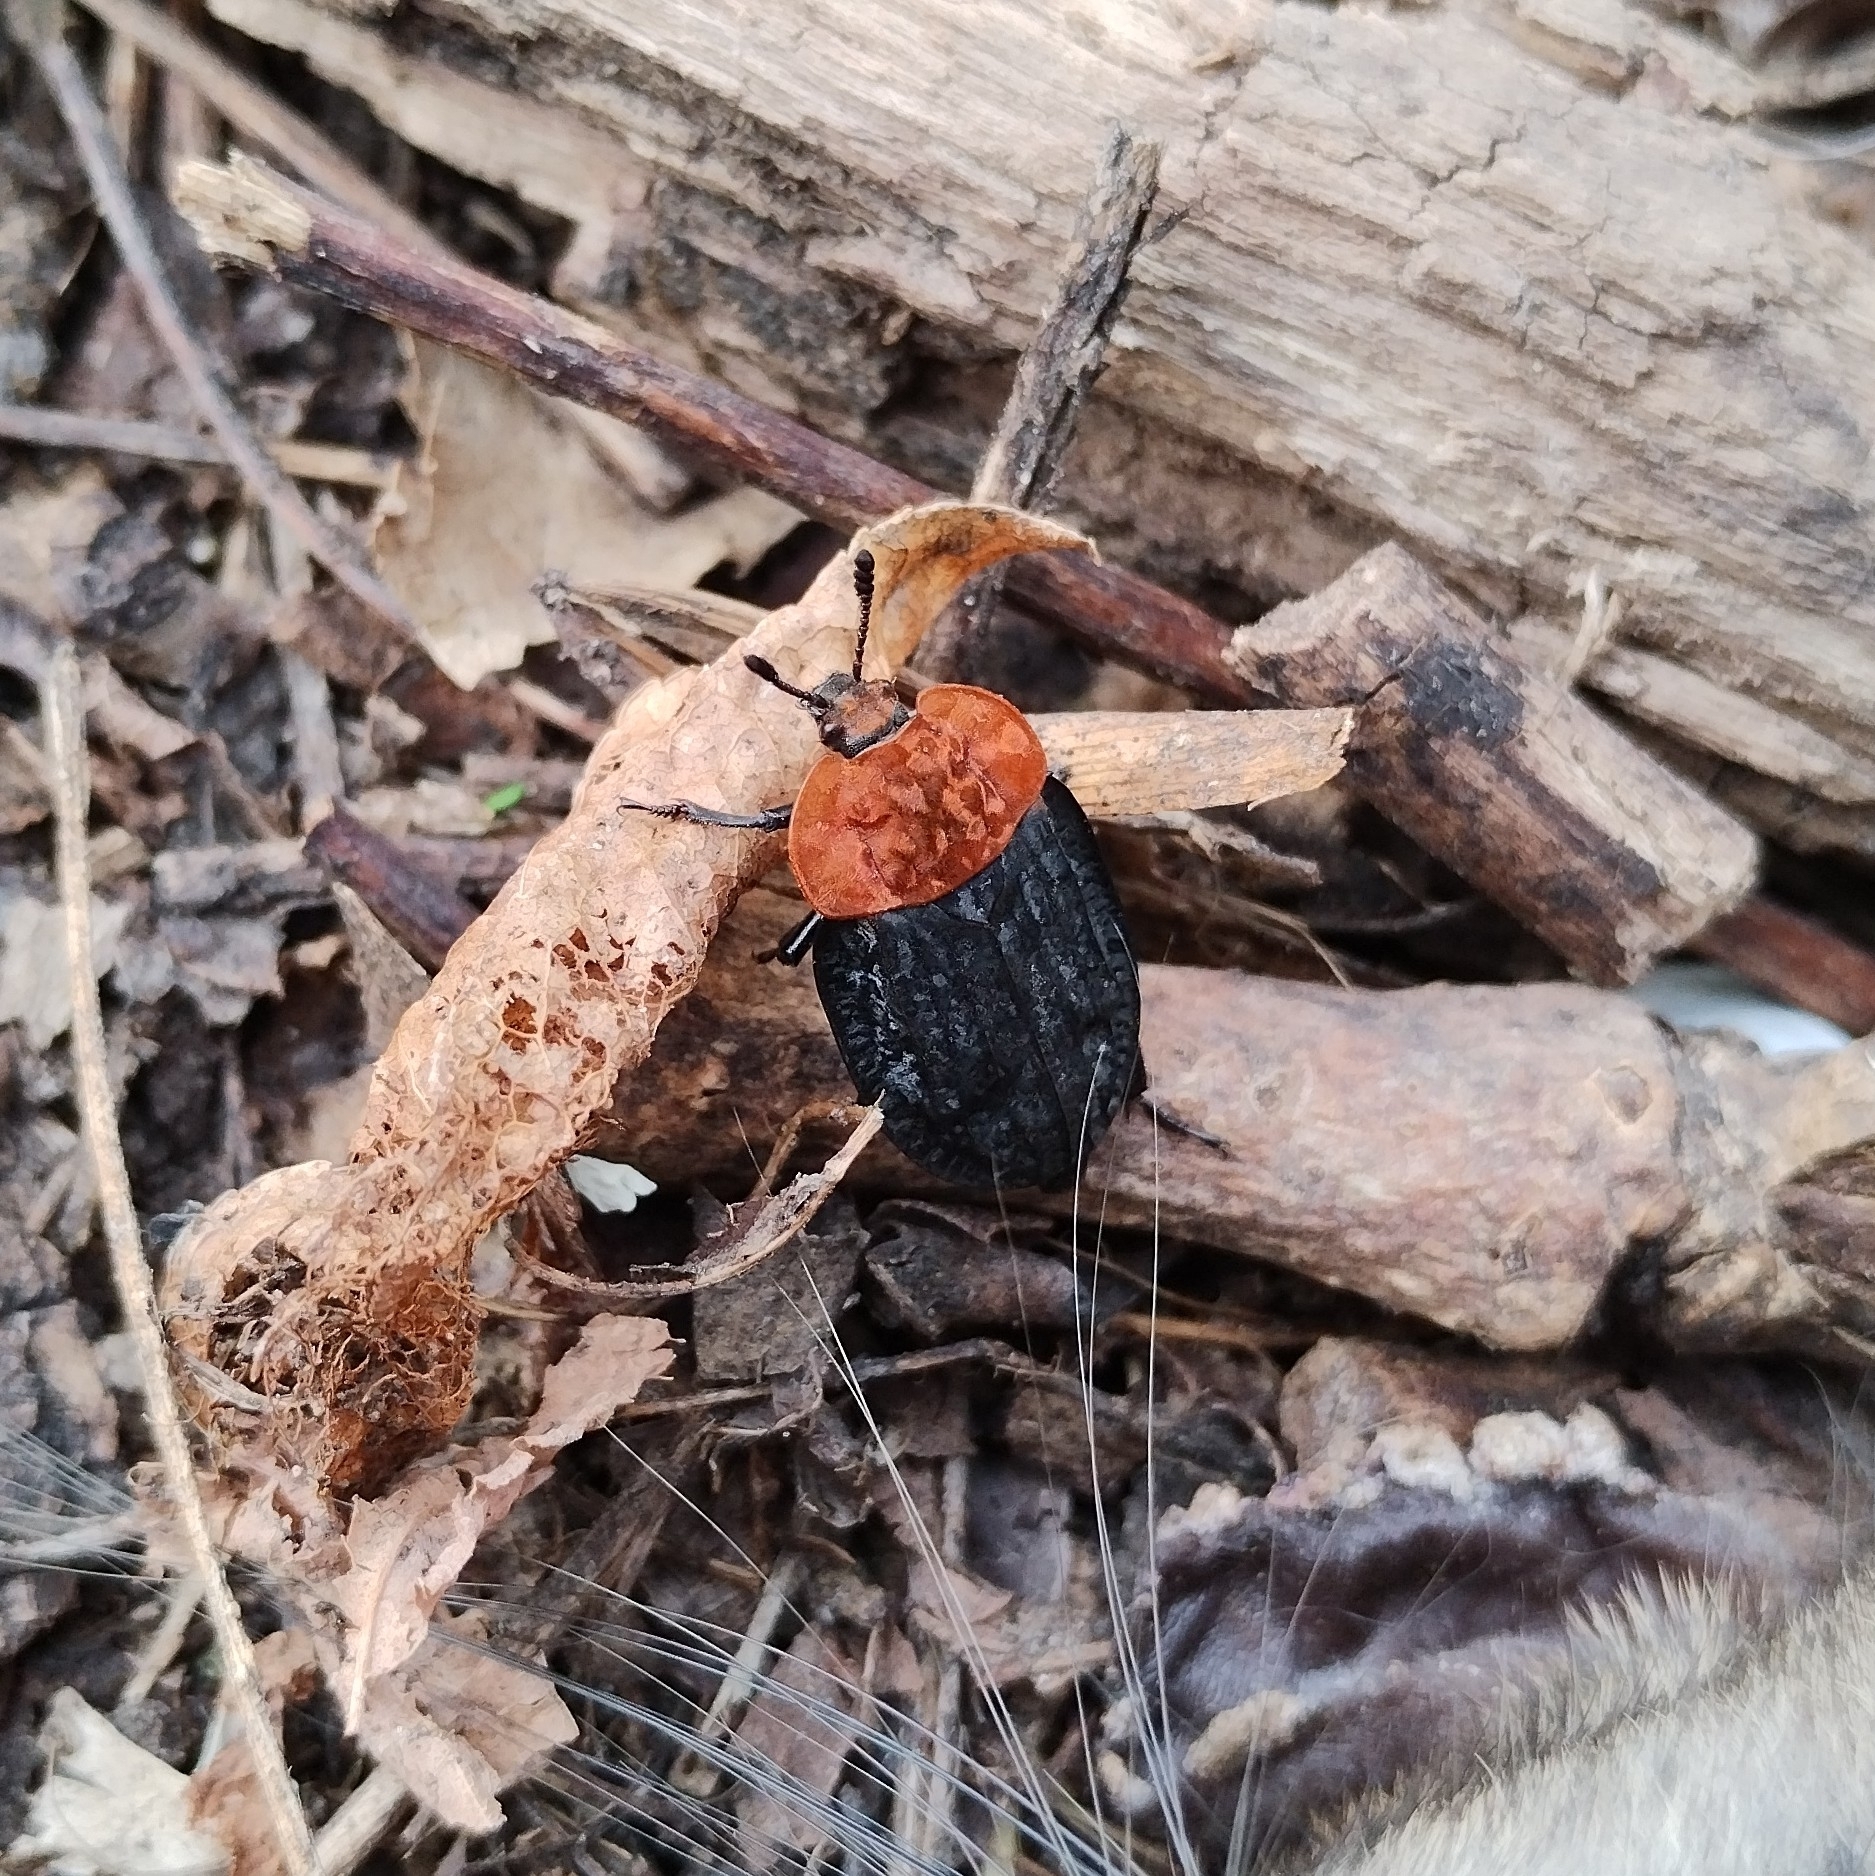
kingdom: Animalia
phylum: Arthropoda
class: Insecta
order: Coleoptera
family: Staphylinidae
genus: Oiceoptoma
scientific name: Oiceoptoma thoracicum
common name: Red-breasted carrion beetle
